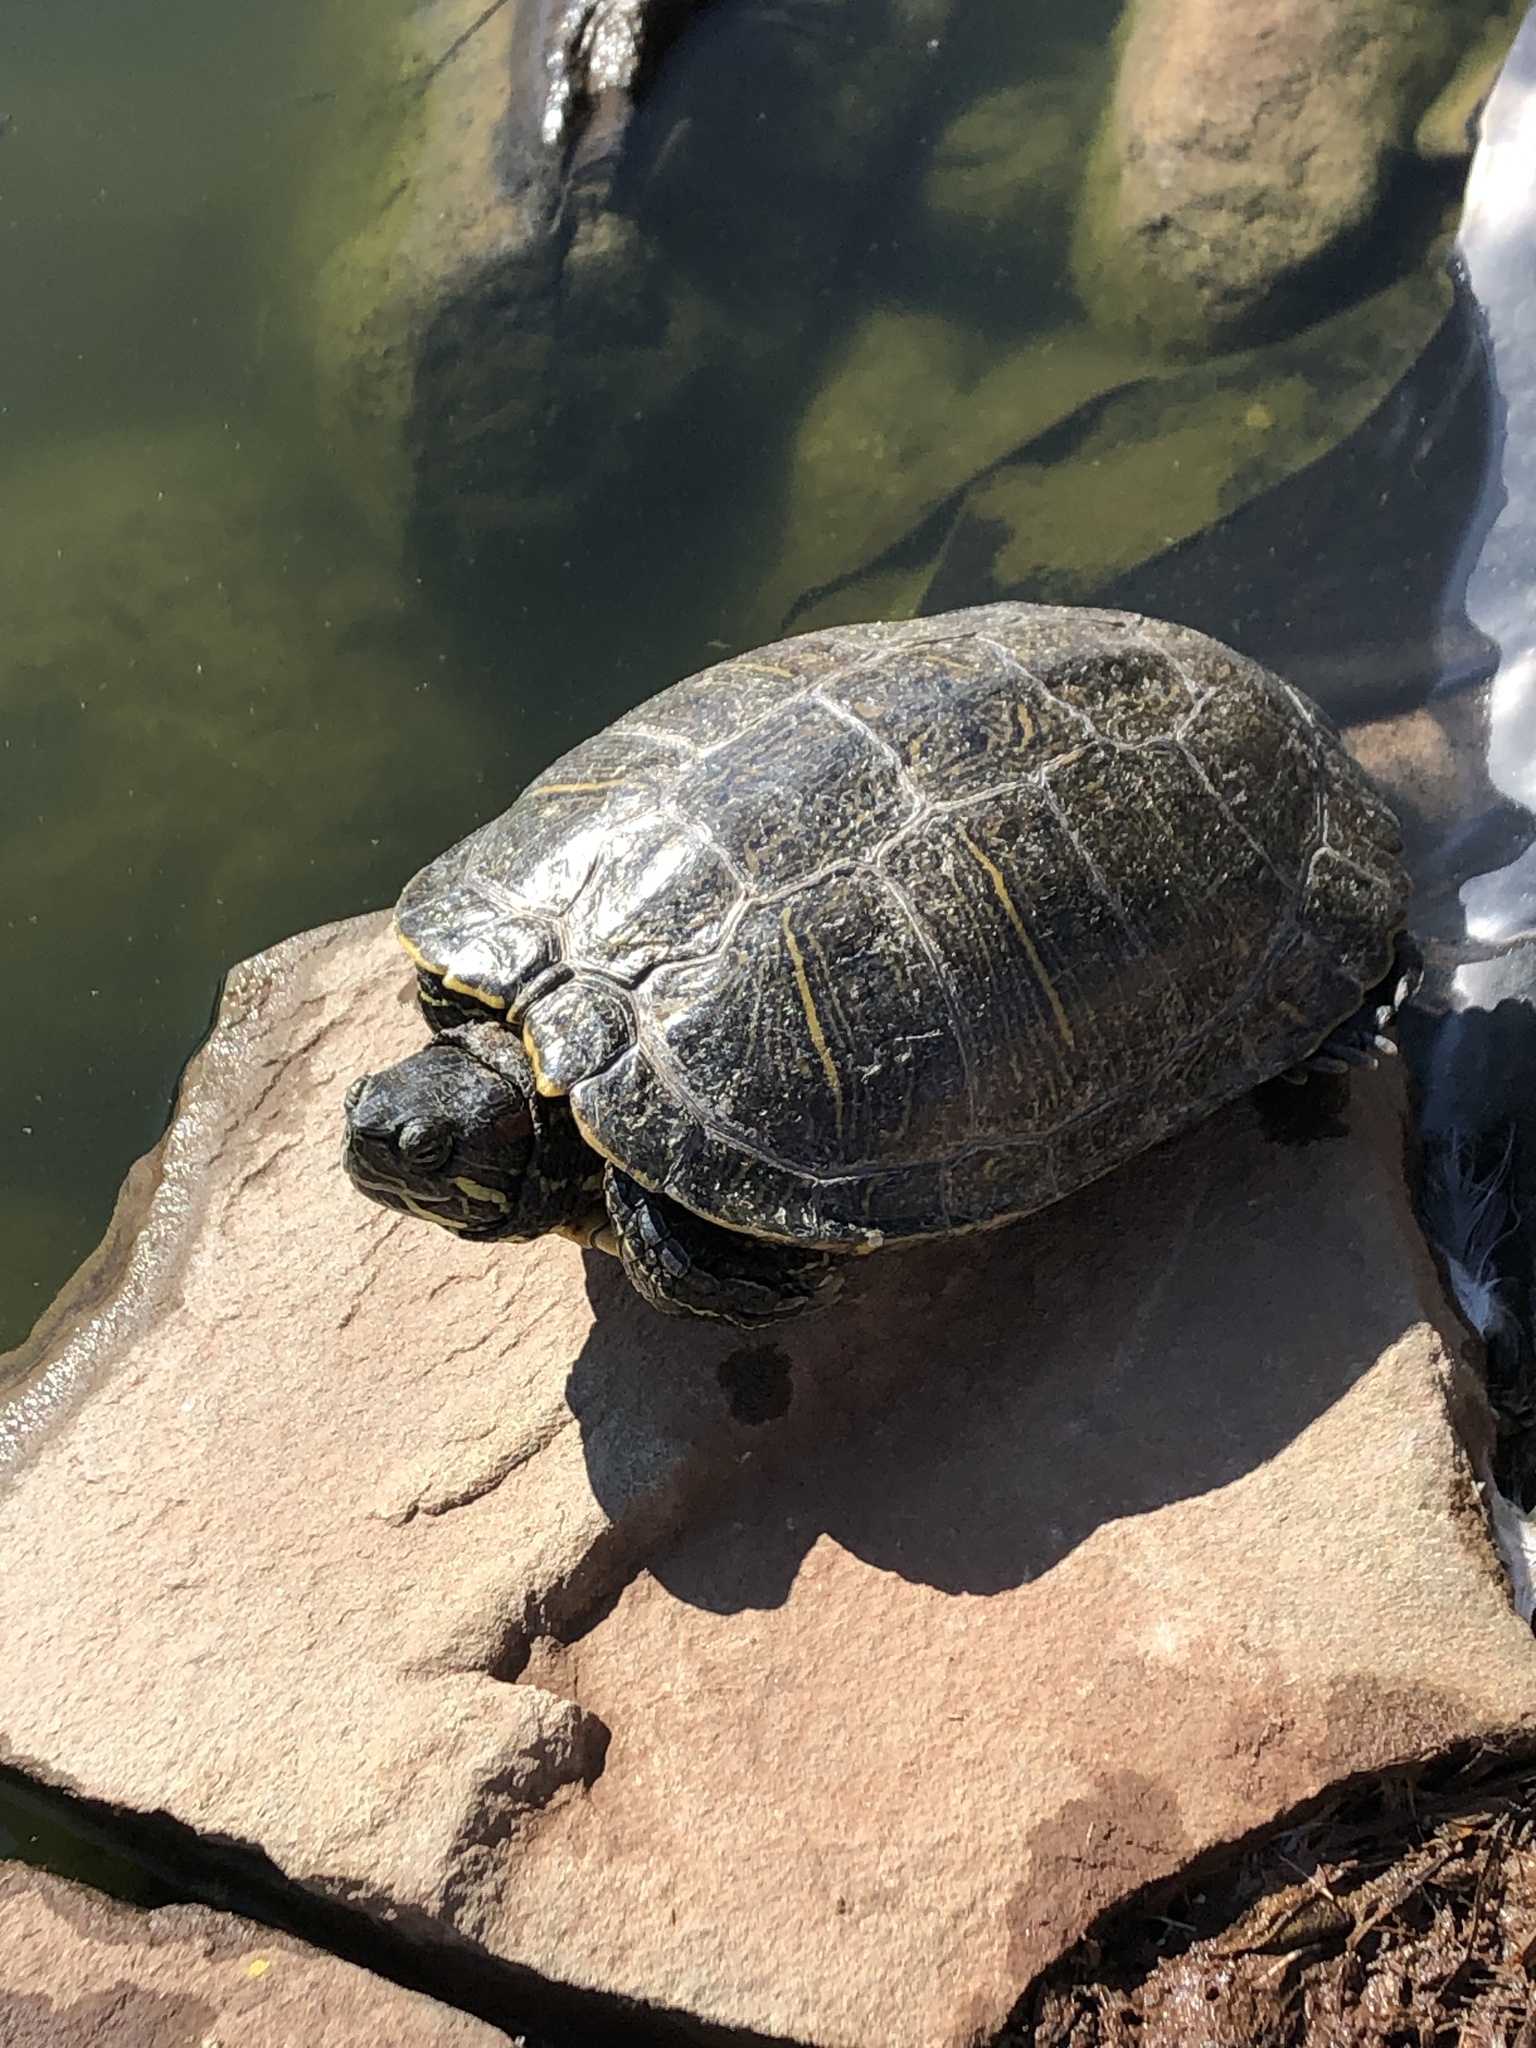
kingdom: Animalia
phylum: Chordata
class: Testudines
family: Emydidae
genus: Trachemys
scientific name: Trachemys scripta
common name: Slider
